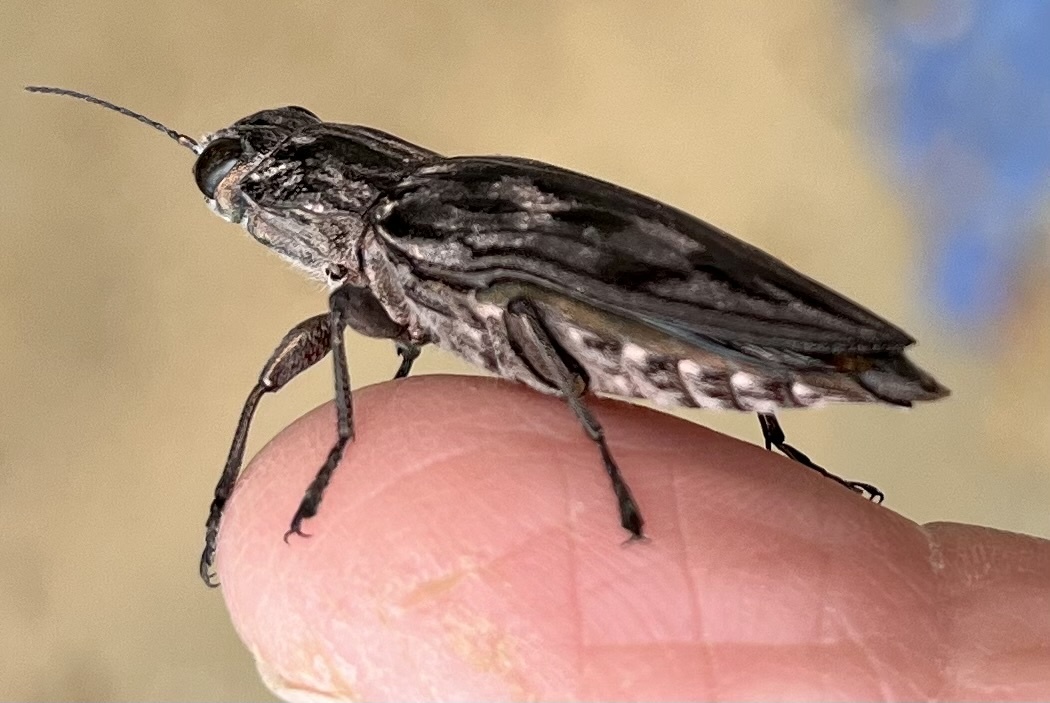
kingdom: Animalia
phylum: Arthropoda
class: Insecta
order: Coleoptera
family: Buprestidae
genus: Chalcophora
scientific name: Chalcophora virginiensis
